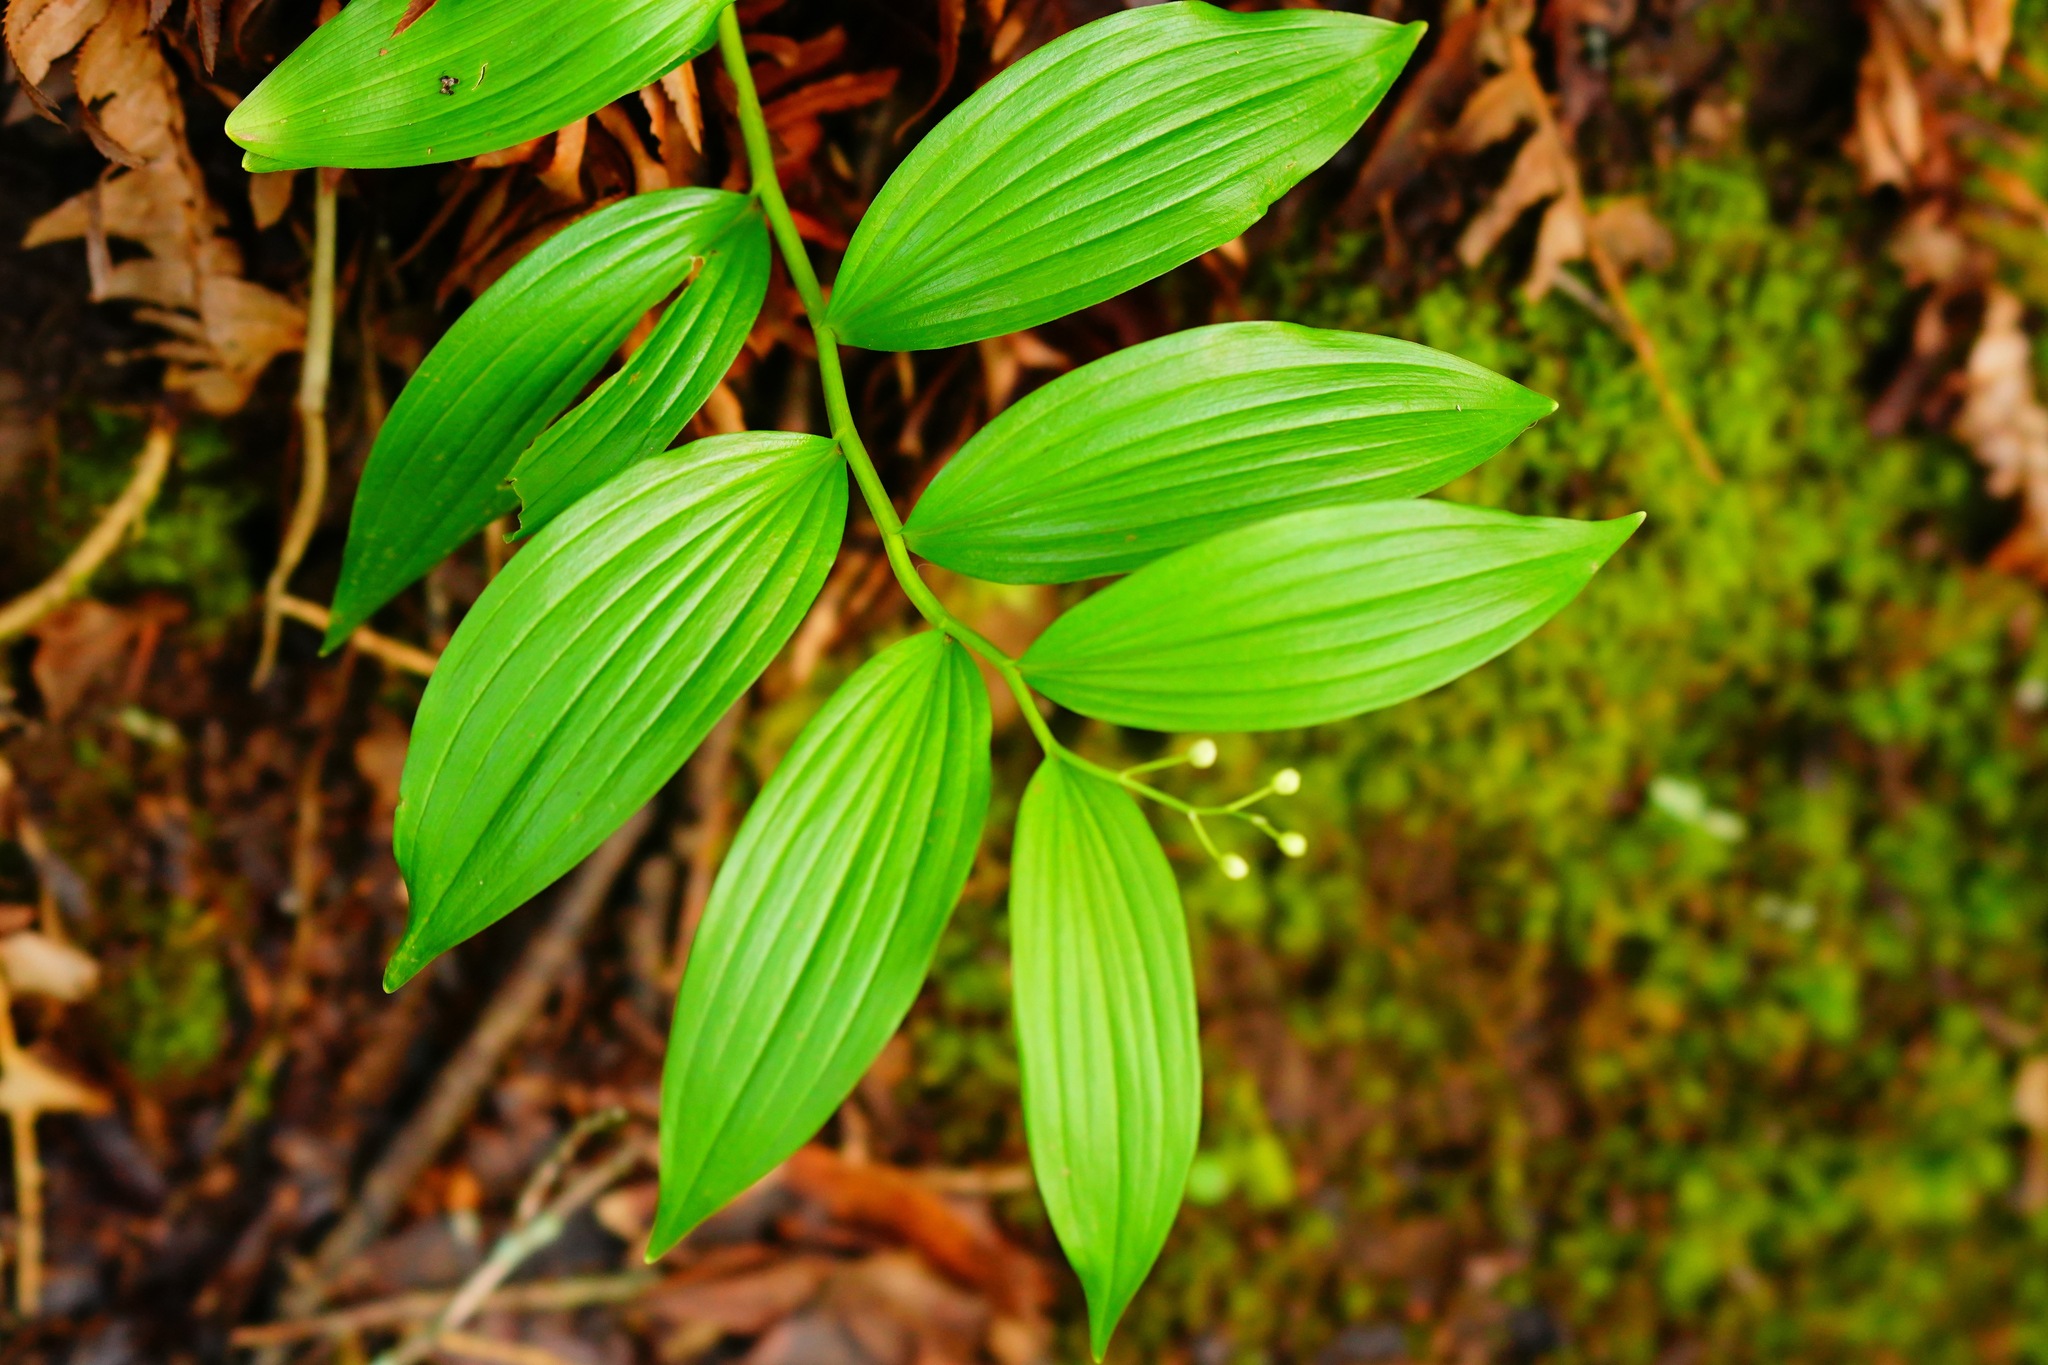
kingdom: Plantae
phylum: Tracheophyta
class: Liliopsida
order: Asparagales
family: Asparagaceae
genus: Maianthemum
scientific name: Maianthemum stellatum
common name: Little false solomon's seal
